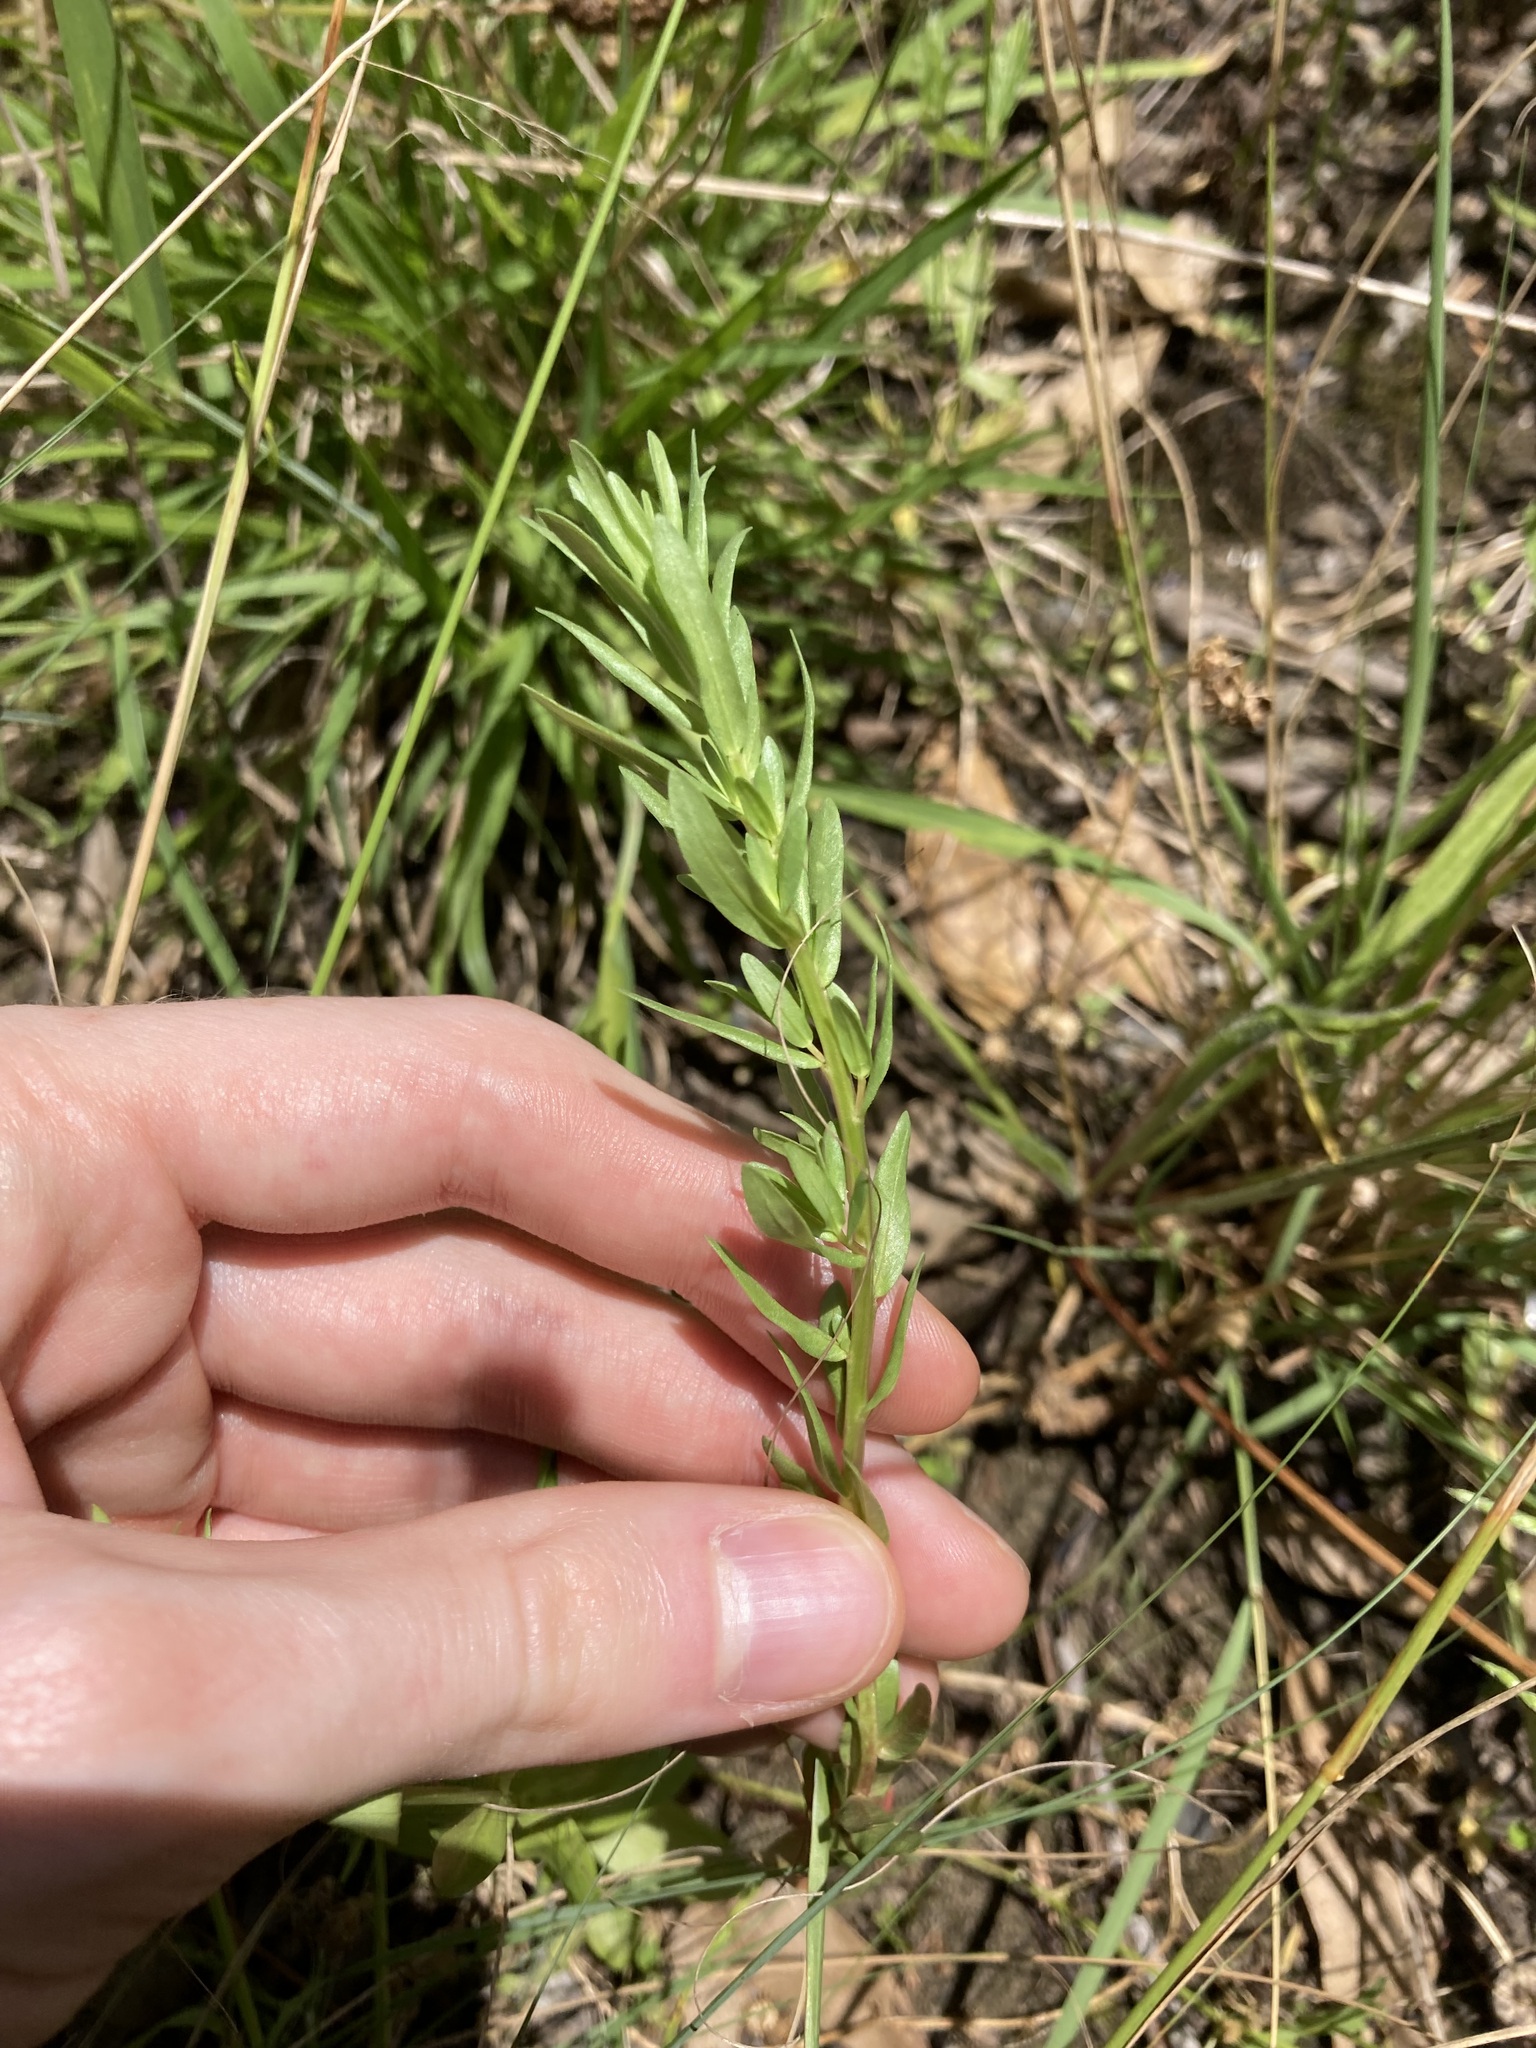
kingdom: Plantae
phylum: Tracheophyta
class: Magnoliopsida
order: Myrtales
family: Lythraceae
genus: Lythrum
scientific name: Lythrum hyssopifolia
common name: Grass-poly
